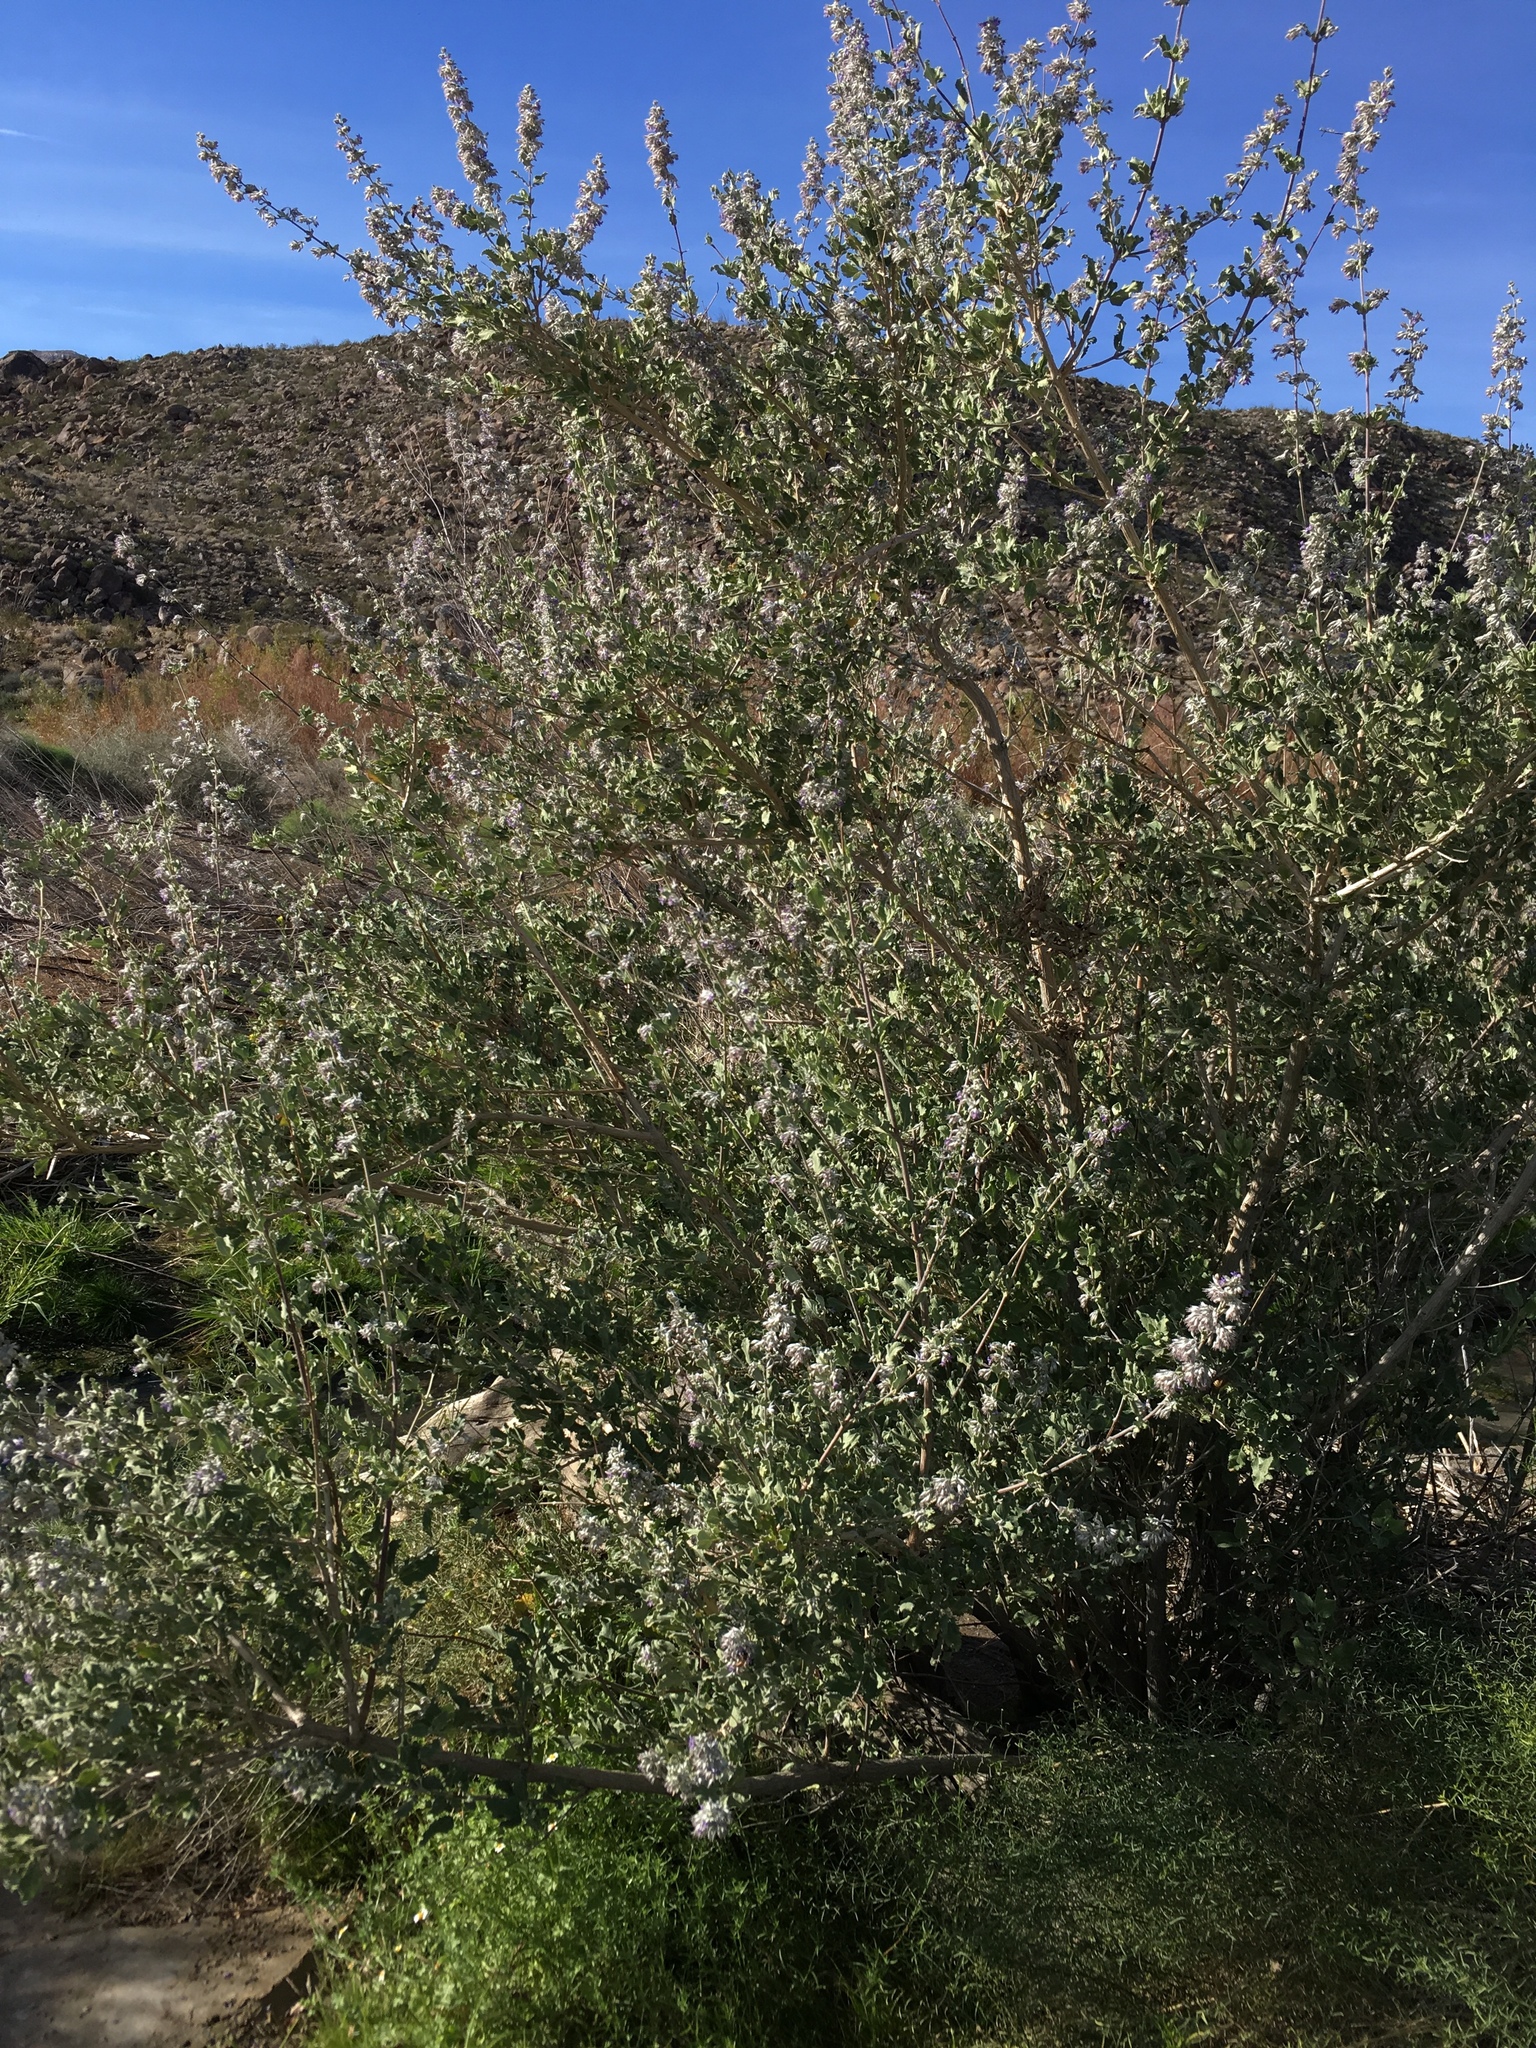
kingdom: Plantae
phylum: Tracheophyta
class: Magnoliopsida
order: Lamiales
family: Lamiaceae
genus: Condea
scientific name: Condea emoryi
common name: Chia
